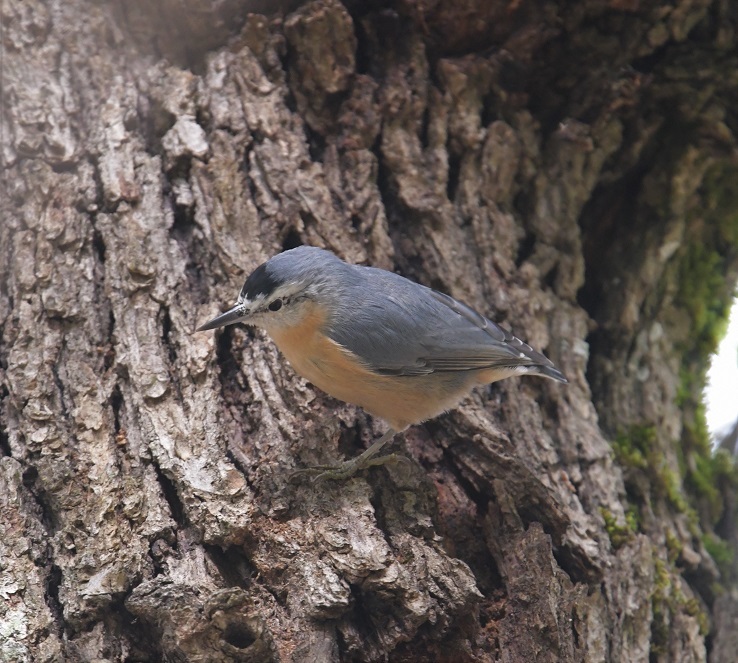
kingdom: Animalia
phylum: Chordata
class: Aves
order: Passeriformes
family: Sittidae
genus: Sitta
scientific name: Sitta ledanti
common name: Algerian nuthatch
